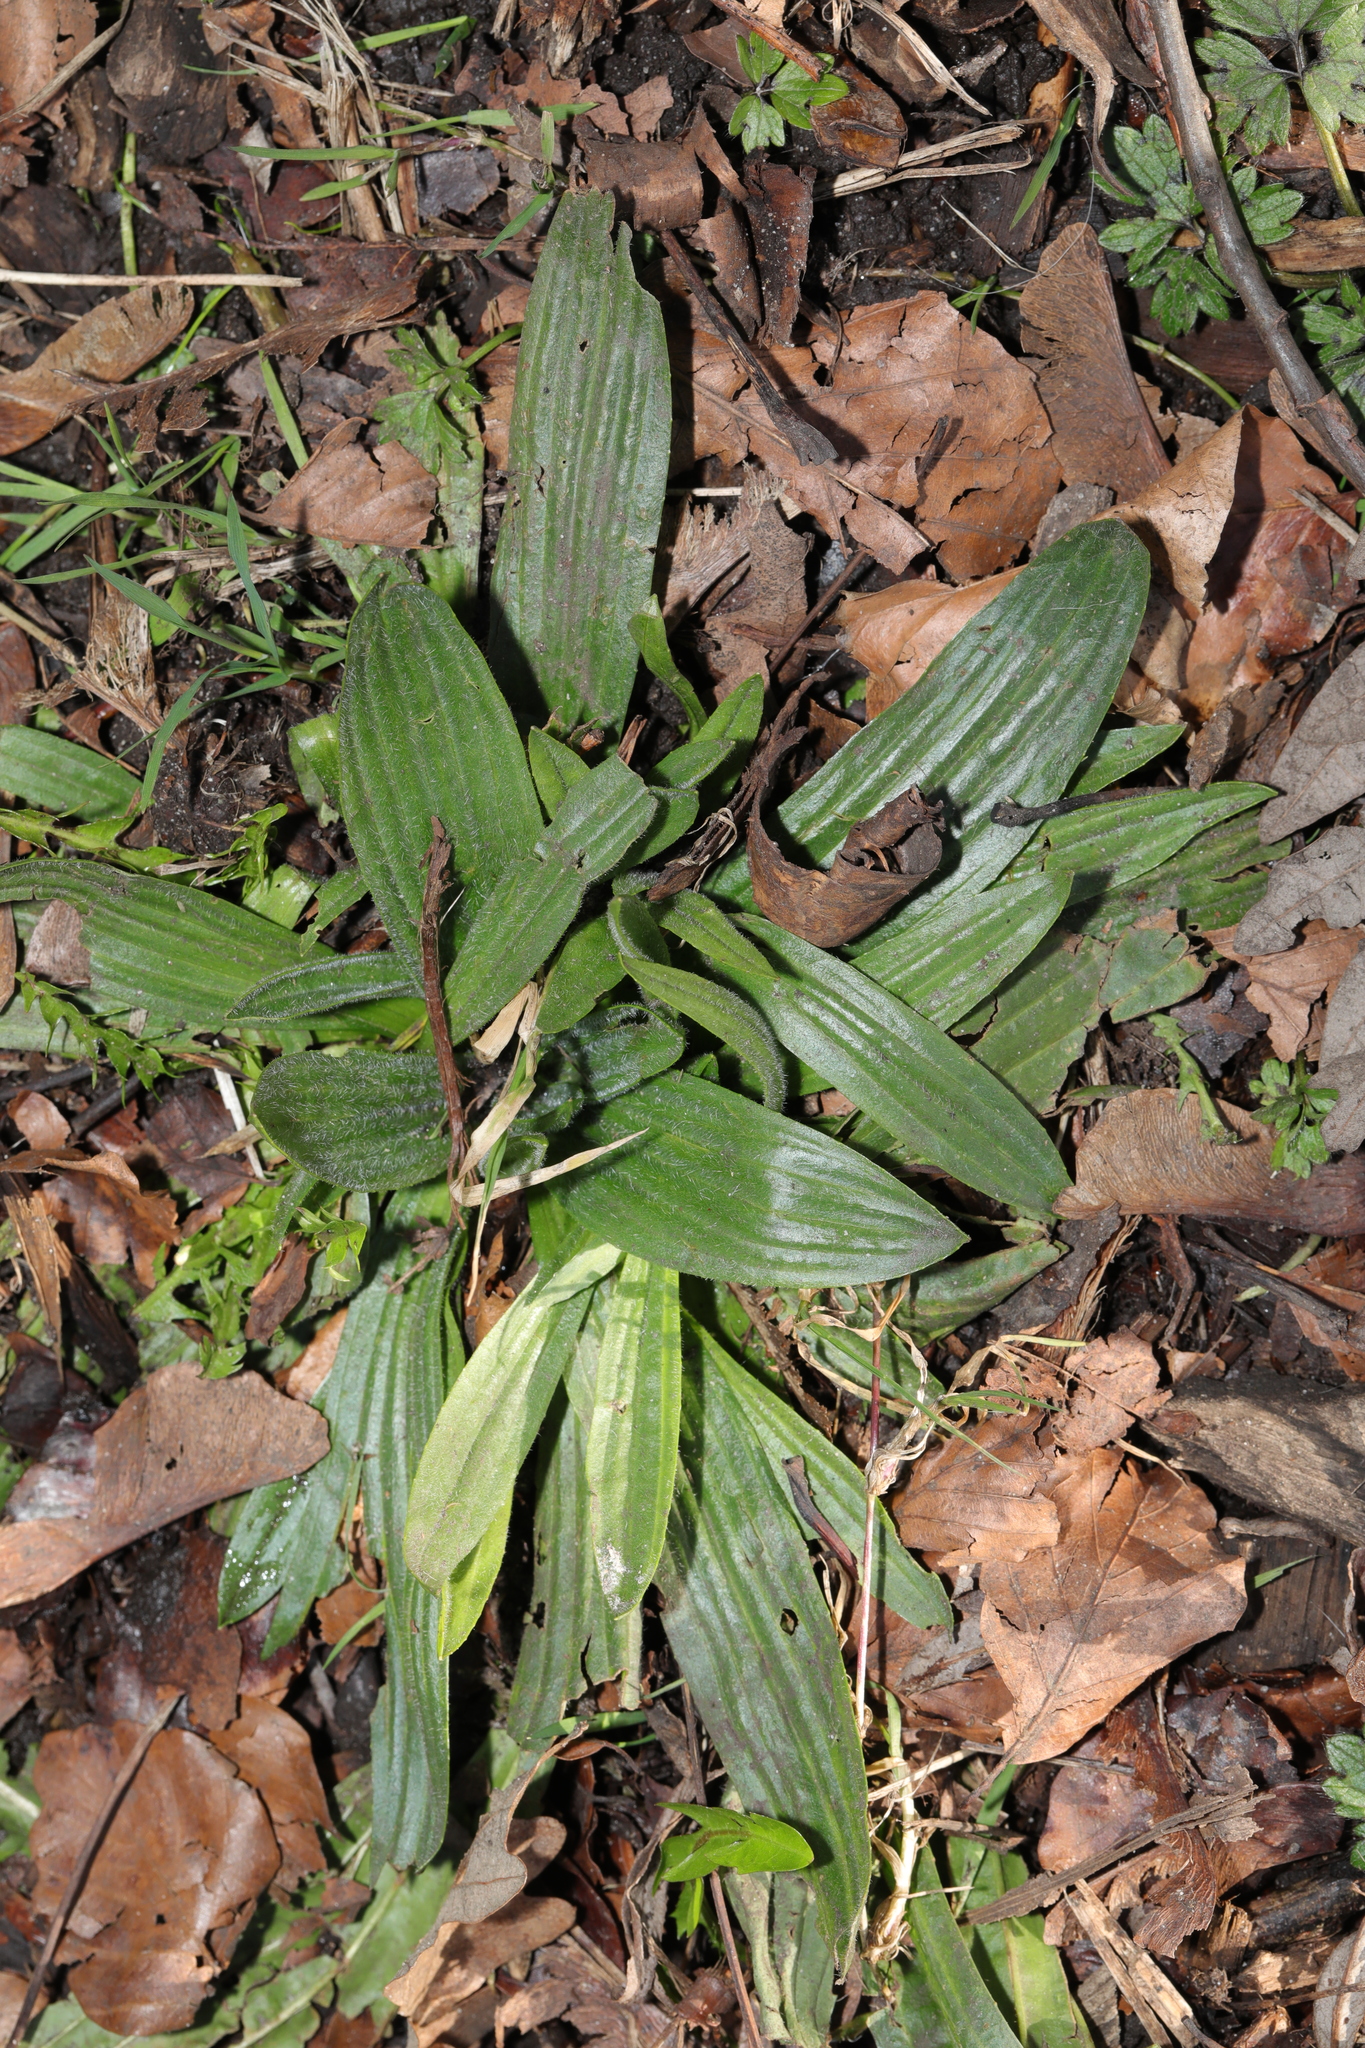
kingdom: Plantae
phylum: Tracheophyta
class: Magnoliopsida
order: Lamiales
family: Plantaginaceae
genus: Plantago
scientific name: Plantago lanceolata
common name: Ribwort plantain
